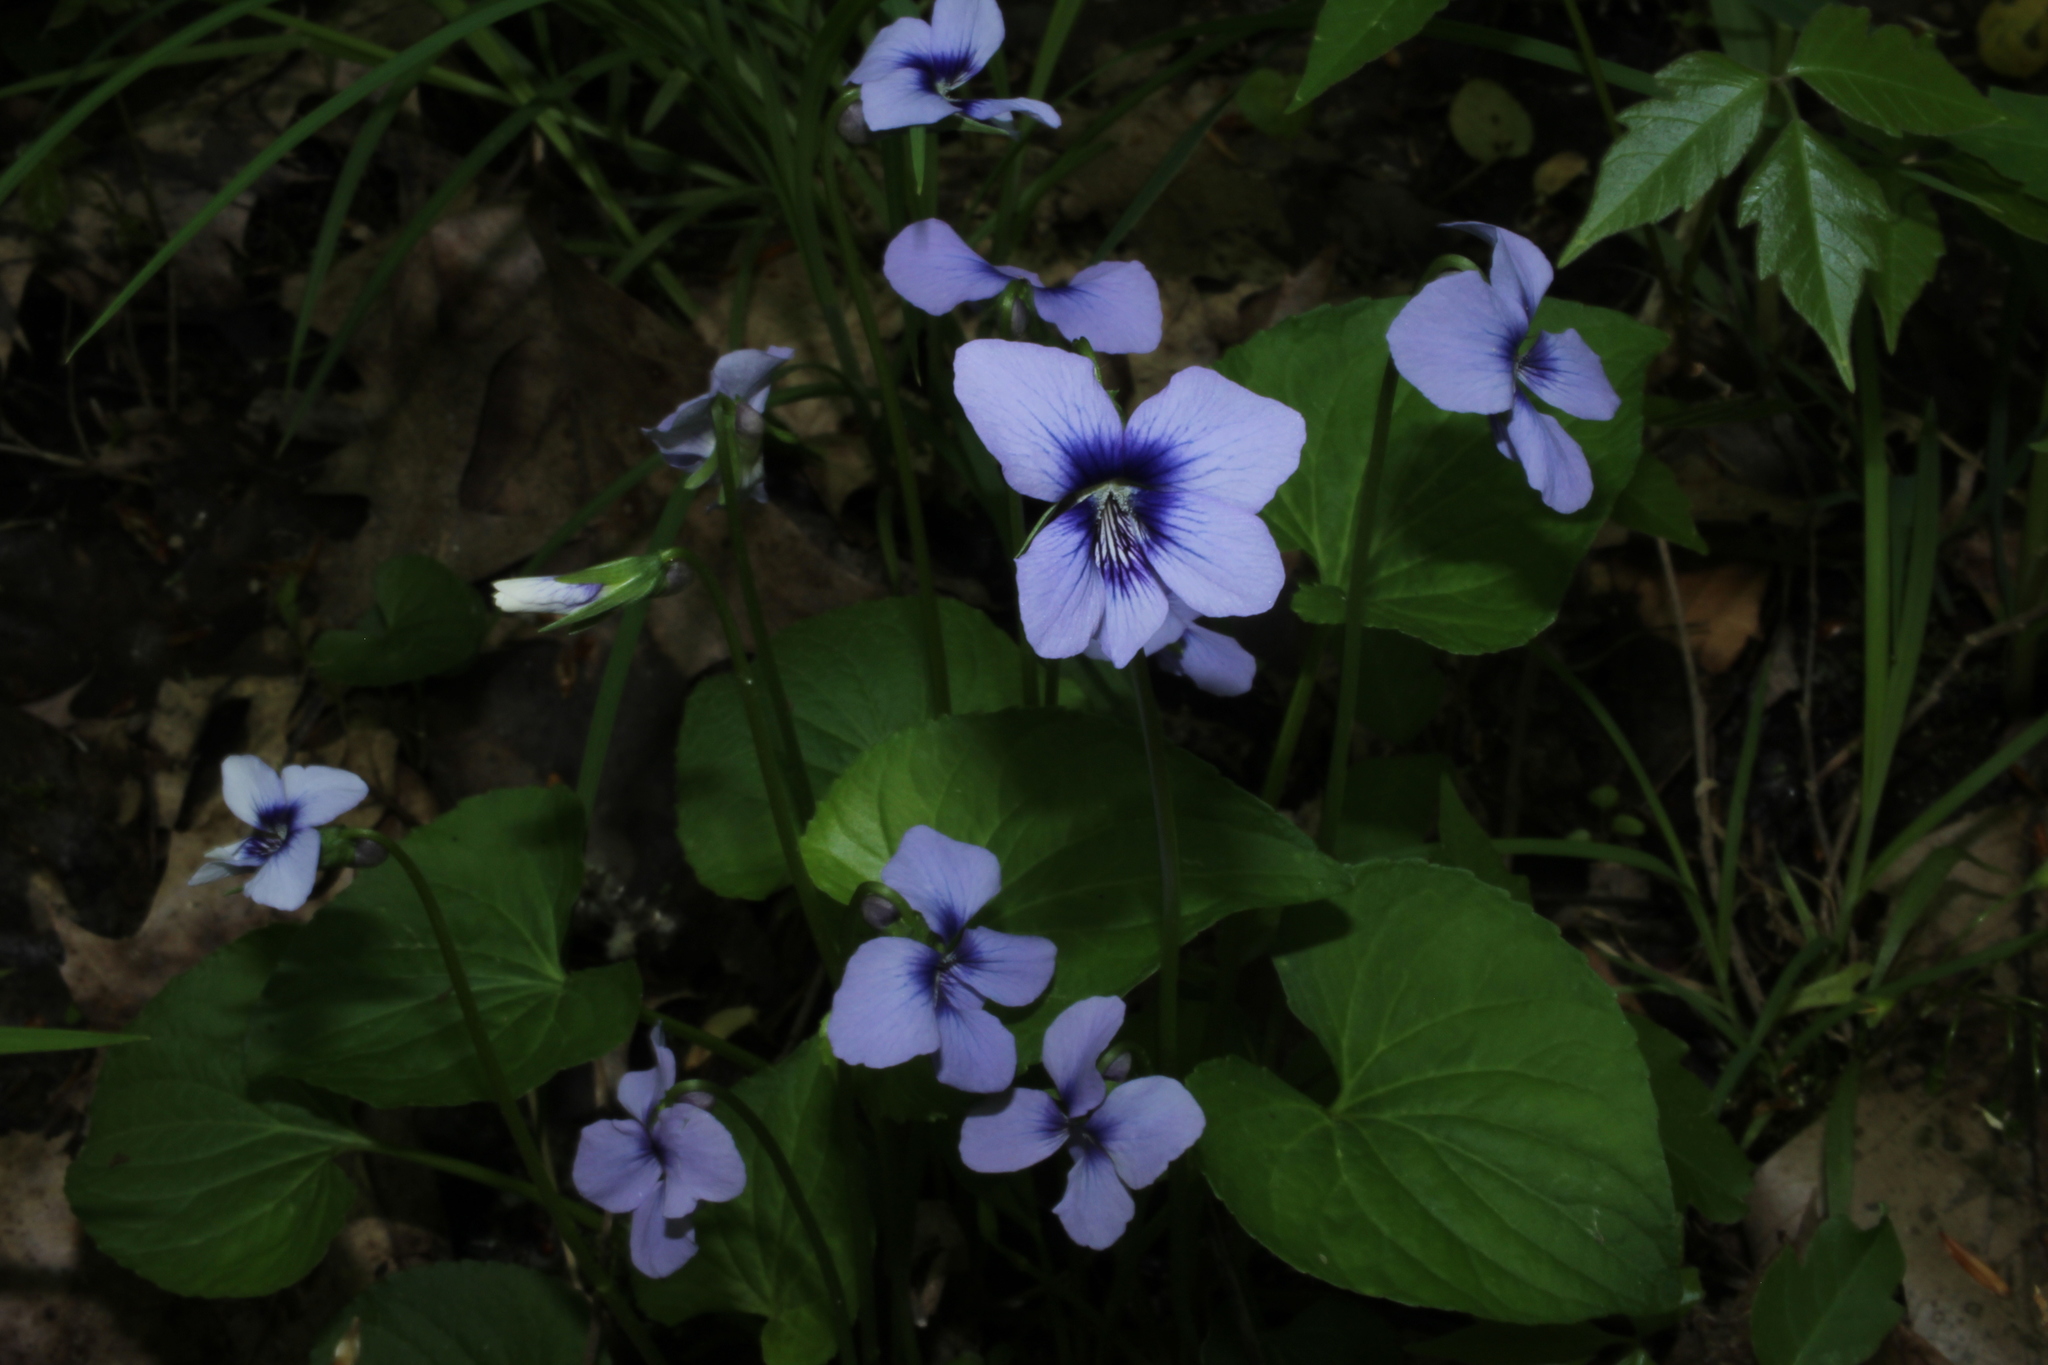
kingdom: Plantae
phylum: Tracheophyta
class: Magnoliopsida
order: Malpighiales
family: Violaceae
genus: Viola
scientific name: Viola cucullata
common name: Marsh blue violet
